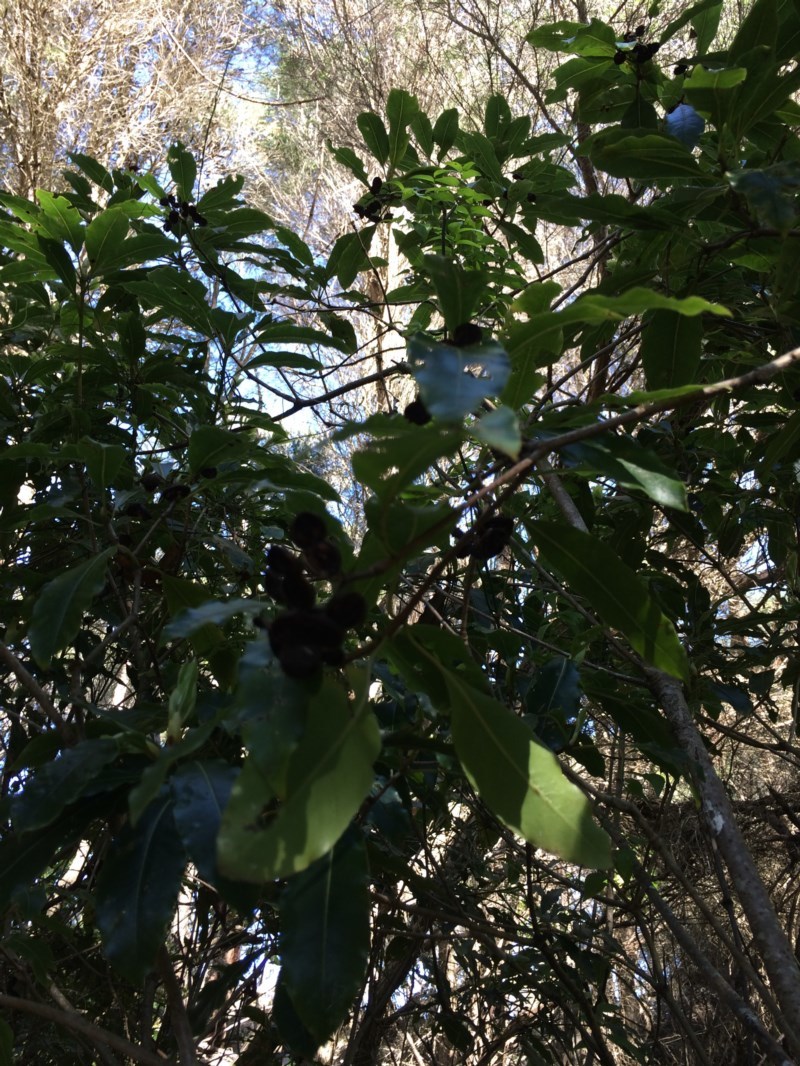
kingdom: Plantae
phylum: Tracheophyta
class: Magnoliopsida
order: Apiales
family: Pittosporaceae
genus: Pittosporum
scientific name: Pittosporum undulatum
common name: Australian cheesewood
